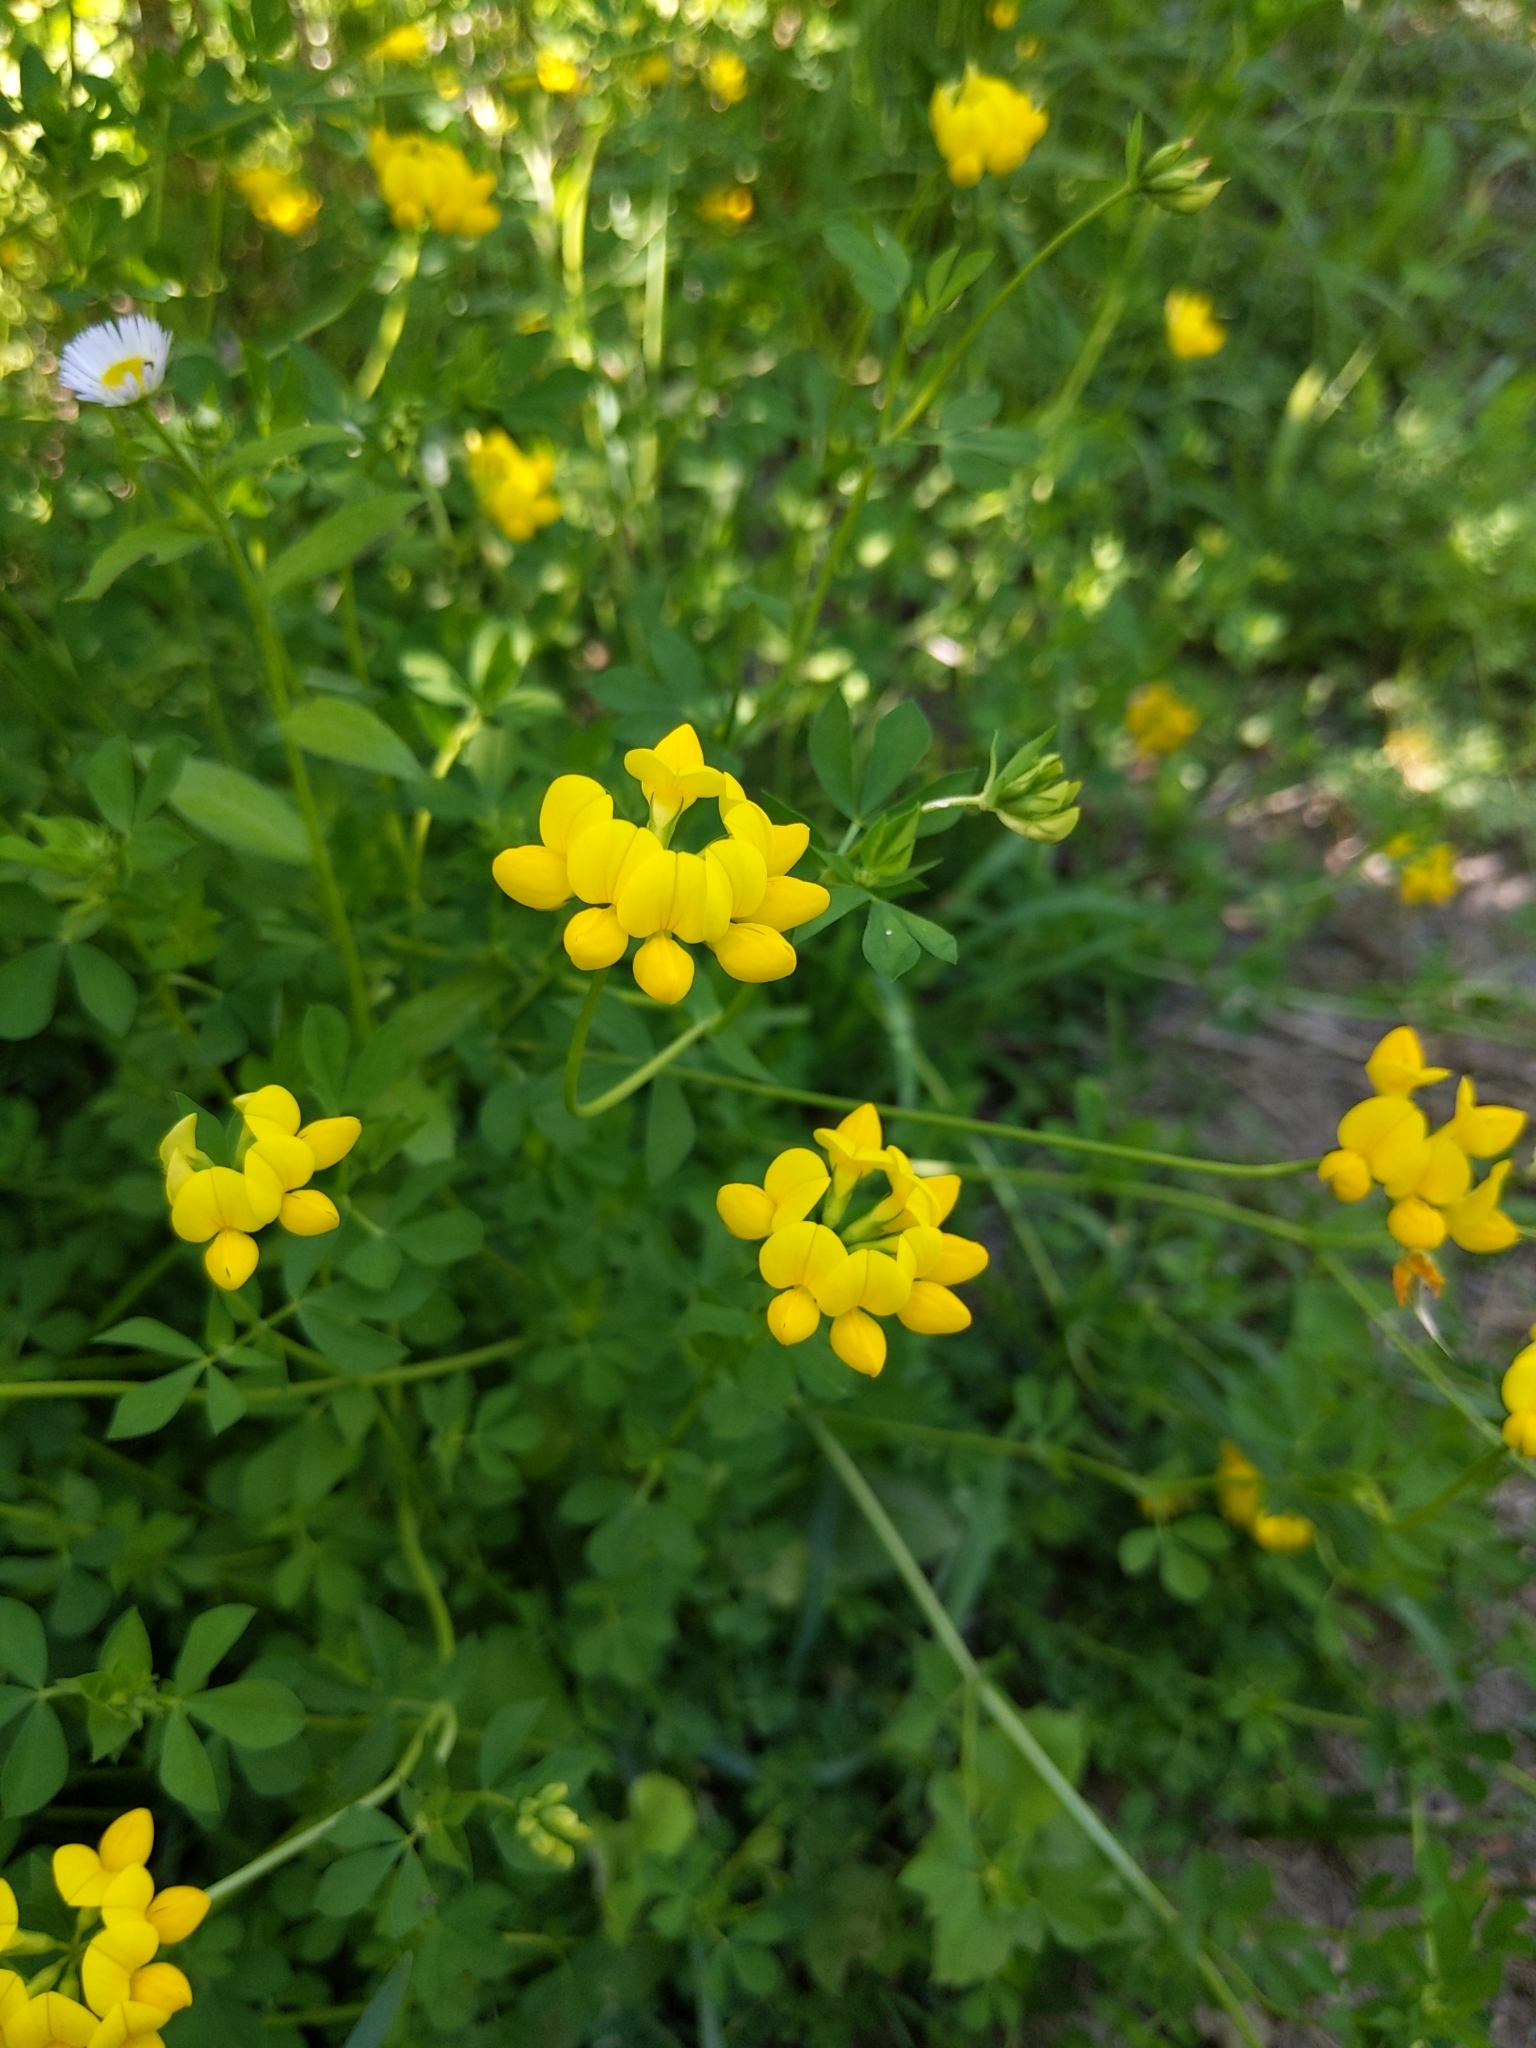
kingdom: Plantae
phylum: Tracheophyta
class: Magnoliopsida
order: Fabales
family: Fabaceae
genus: Lotus
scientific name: Lotus corniculatus
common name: Common bird's-foot-trefoil
